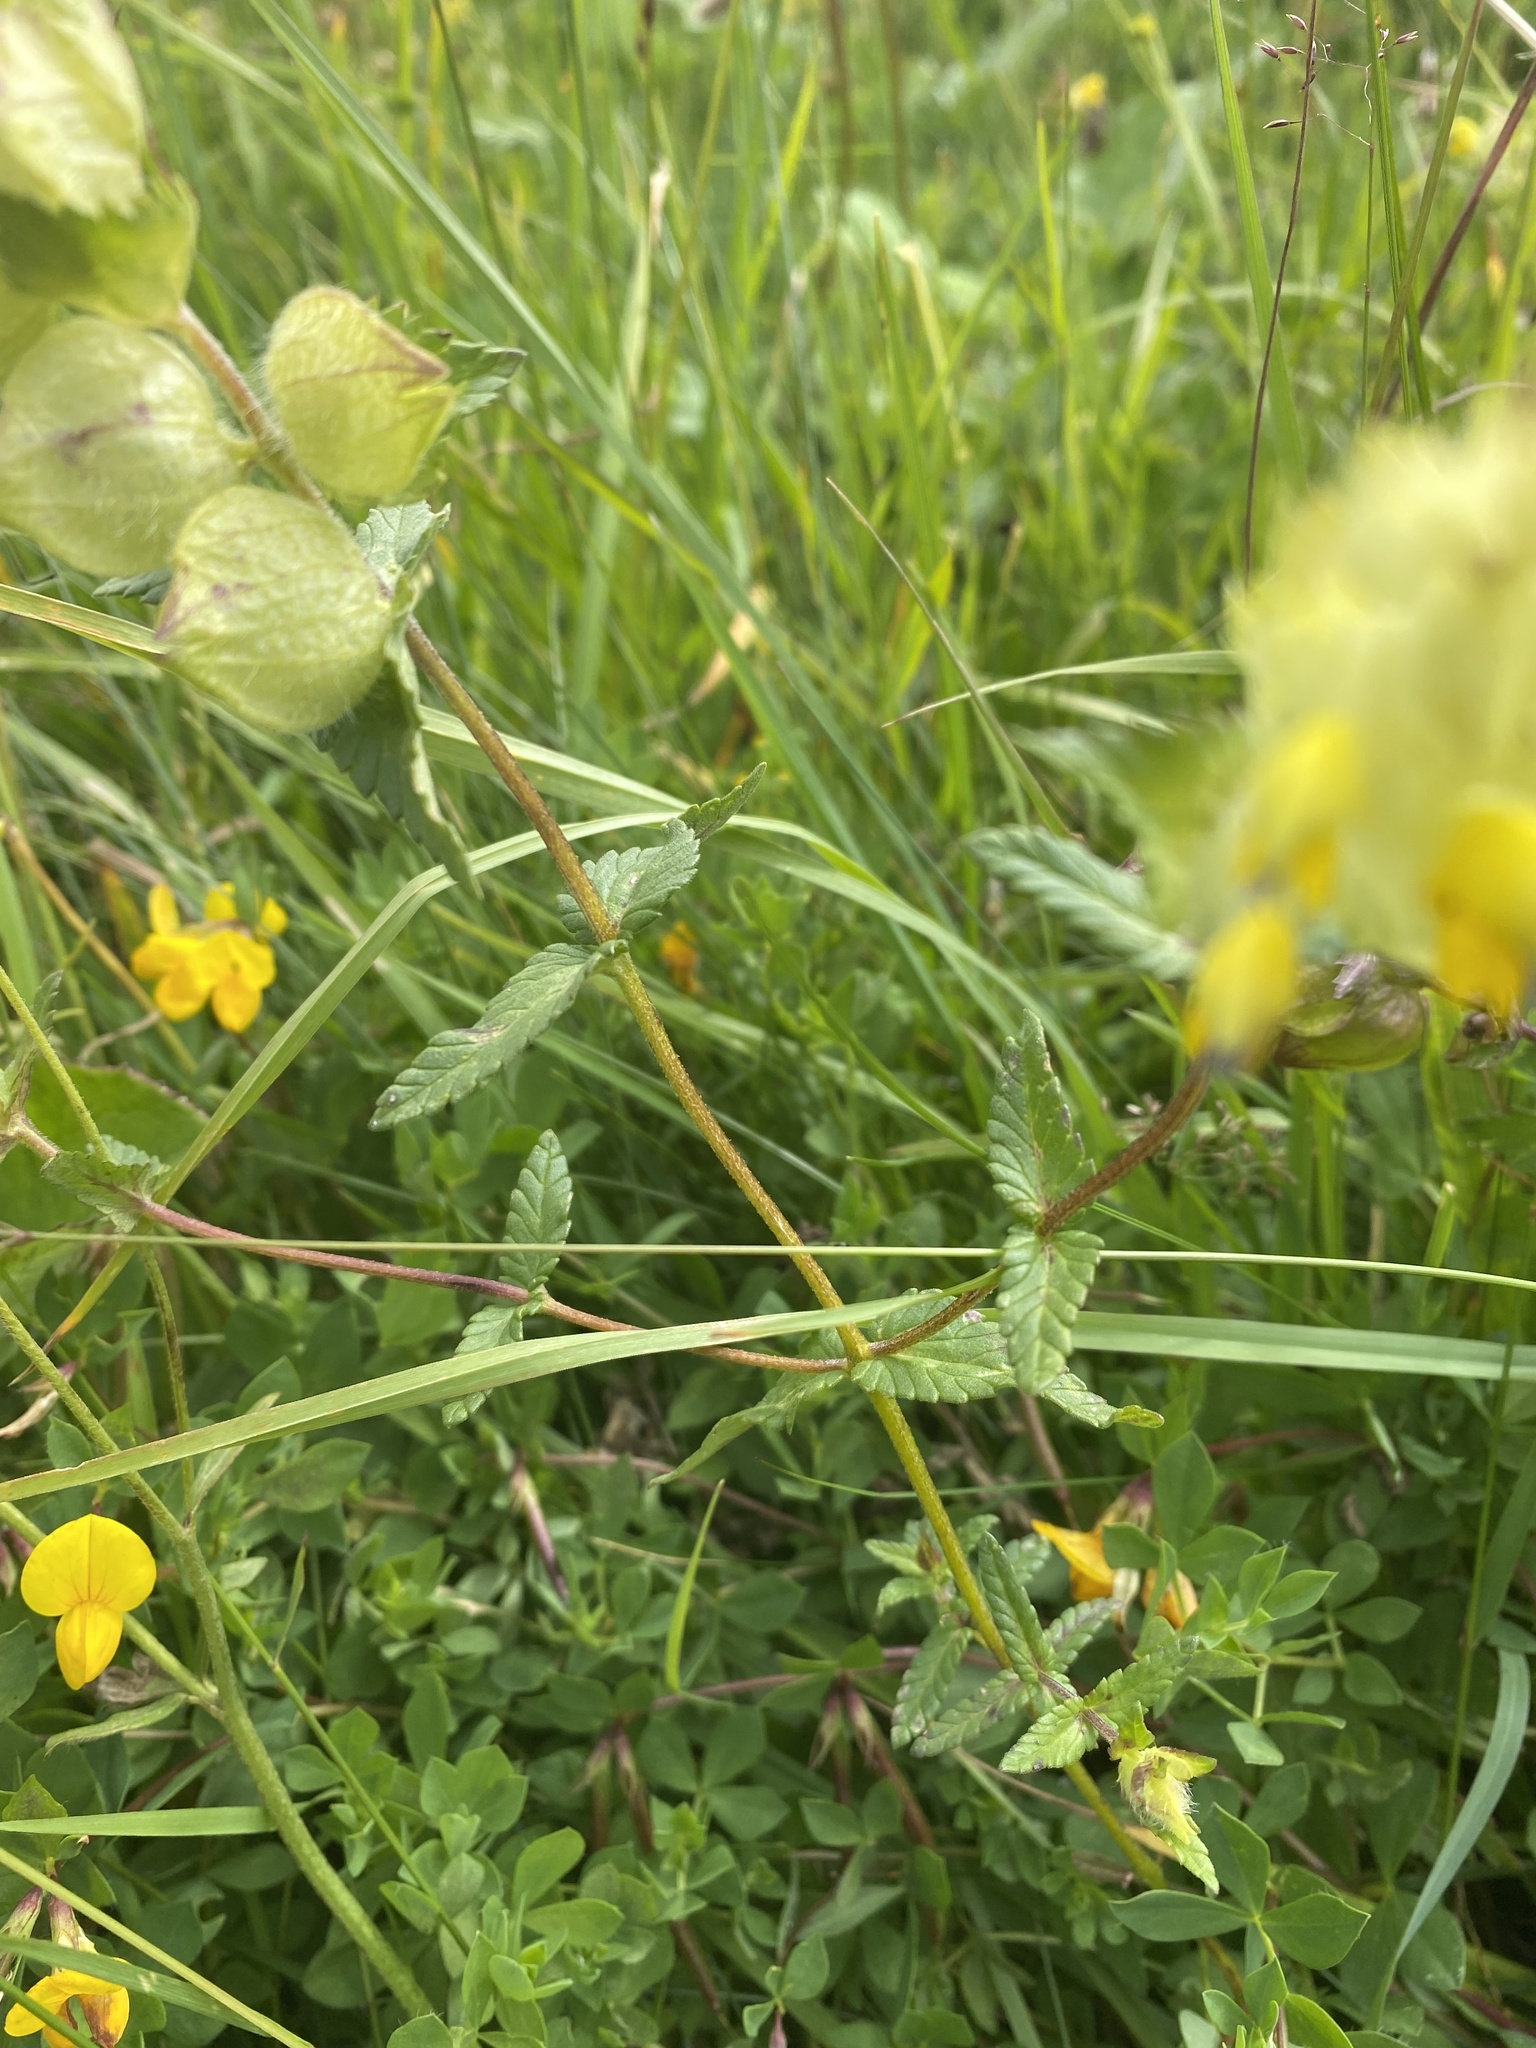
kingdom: Plantae
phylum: Tracheophyta
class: Magnoliopsida
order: Lamiales
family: Orobanchaceae
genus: Rhinanthus
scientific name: Rhinanthus alectorolophus
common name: Greater yellow-rattle
